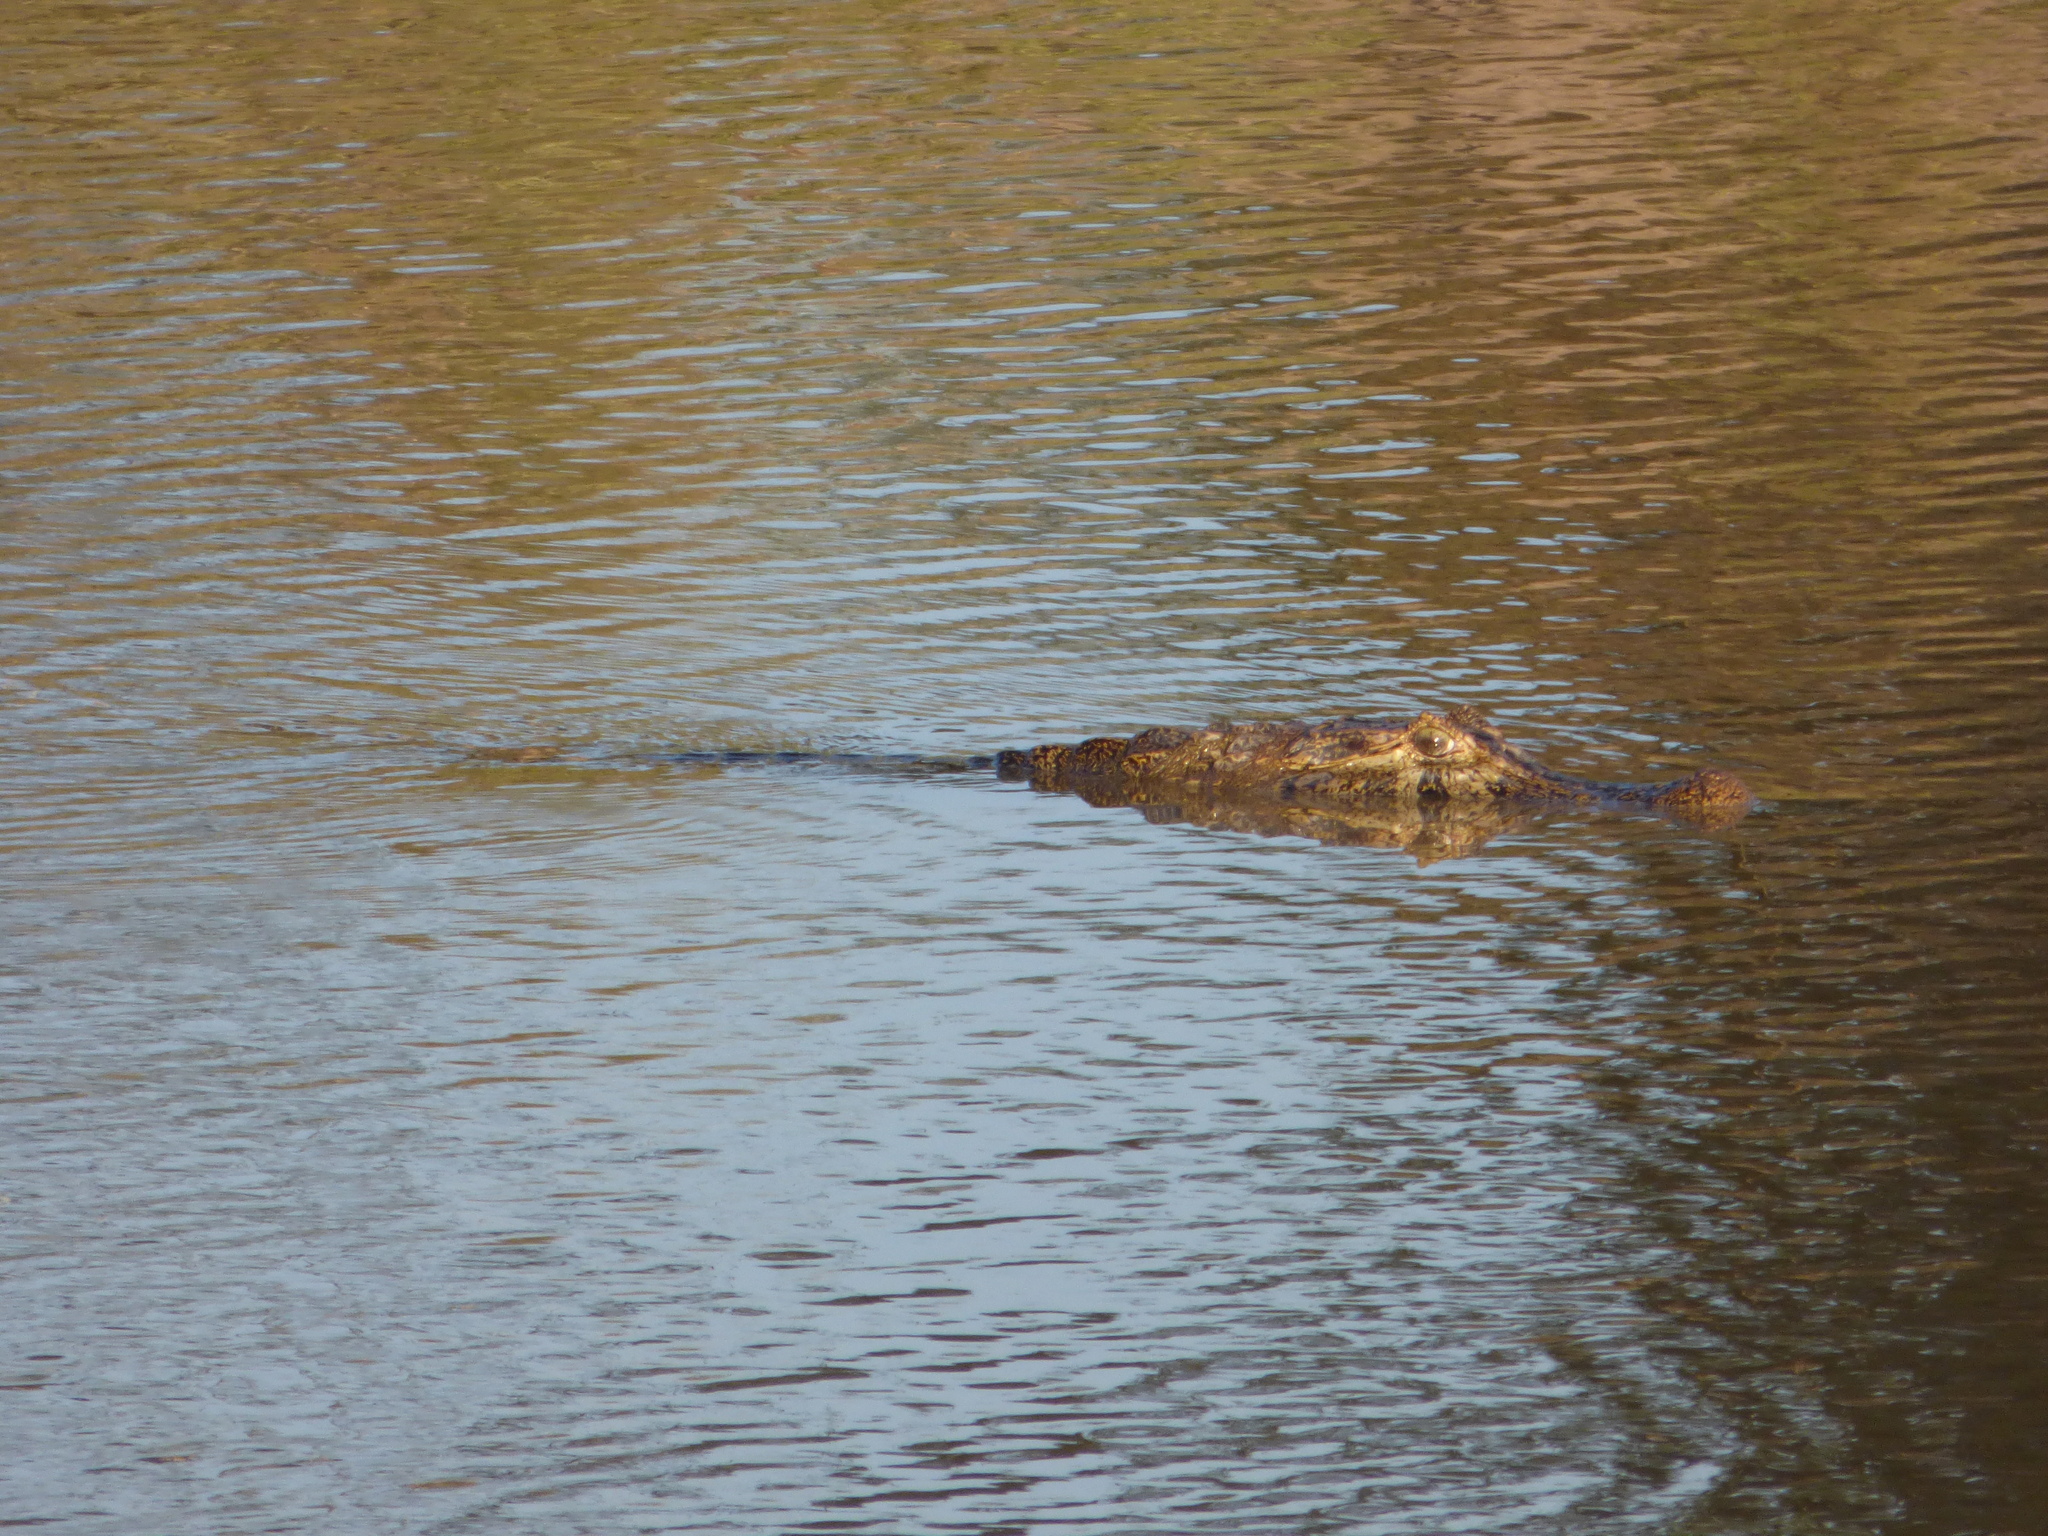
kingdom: Animalia
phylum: Chordata
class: Crocodylia
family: Alligatoridae
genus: Caiman
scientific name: Caiman yacare
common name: Yacare caiman
